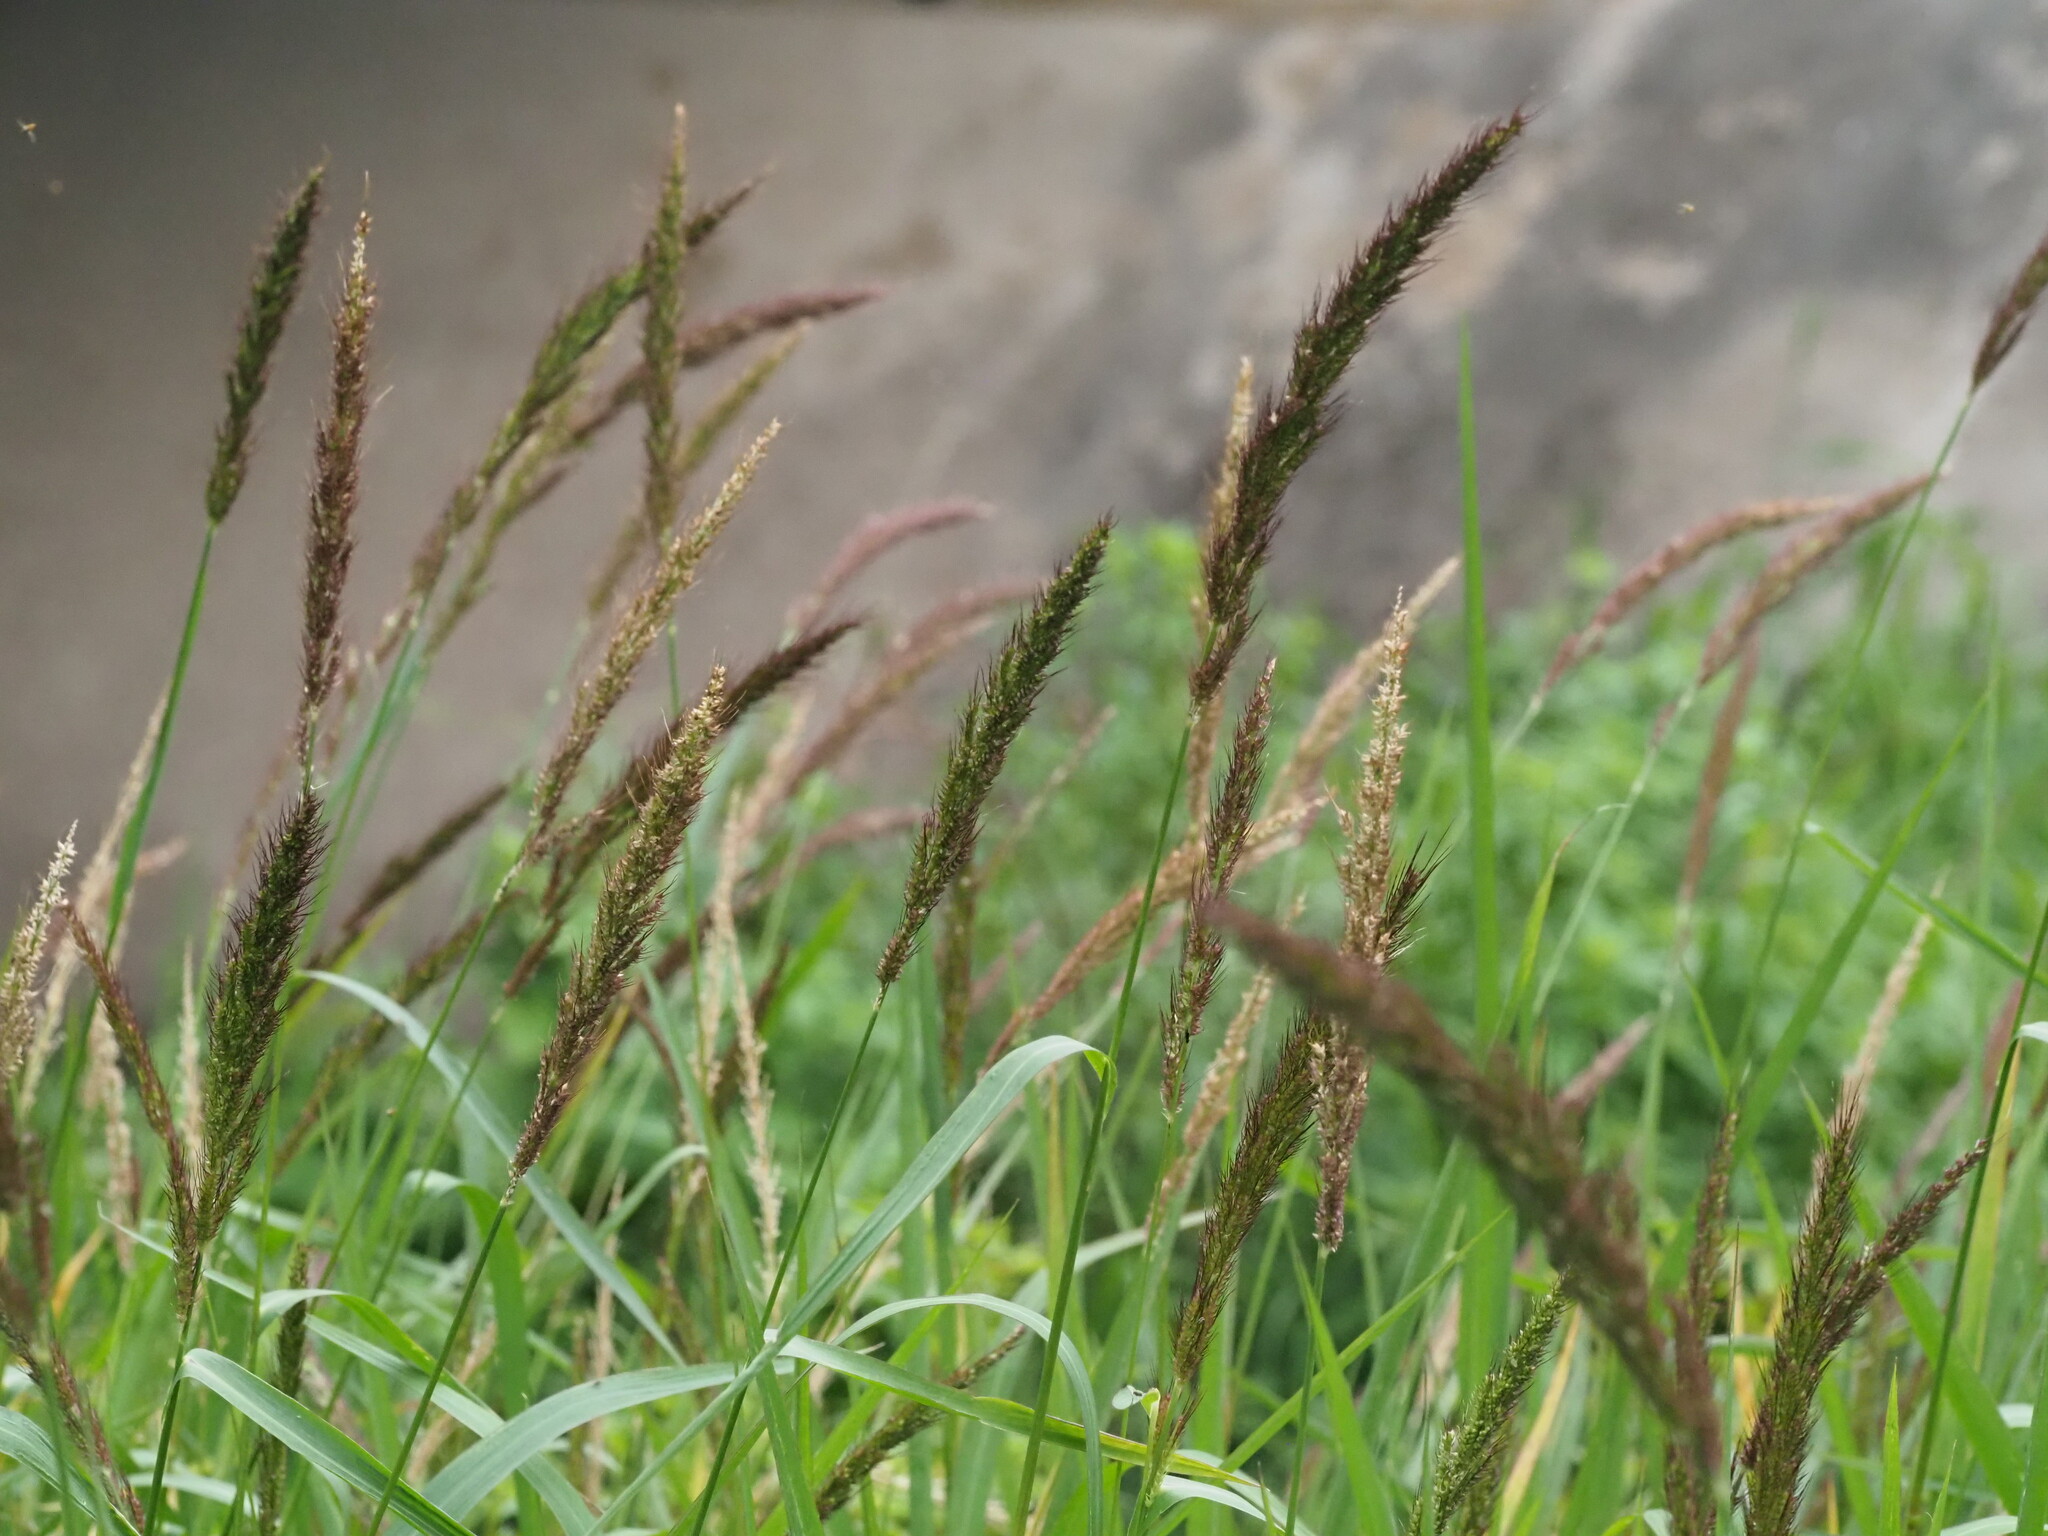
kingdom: Plantae
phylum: Tracheophyta
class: Liliopsida
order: Poales
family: Poaceae
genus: Echinochloa
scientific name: Echinochloa haploclada
